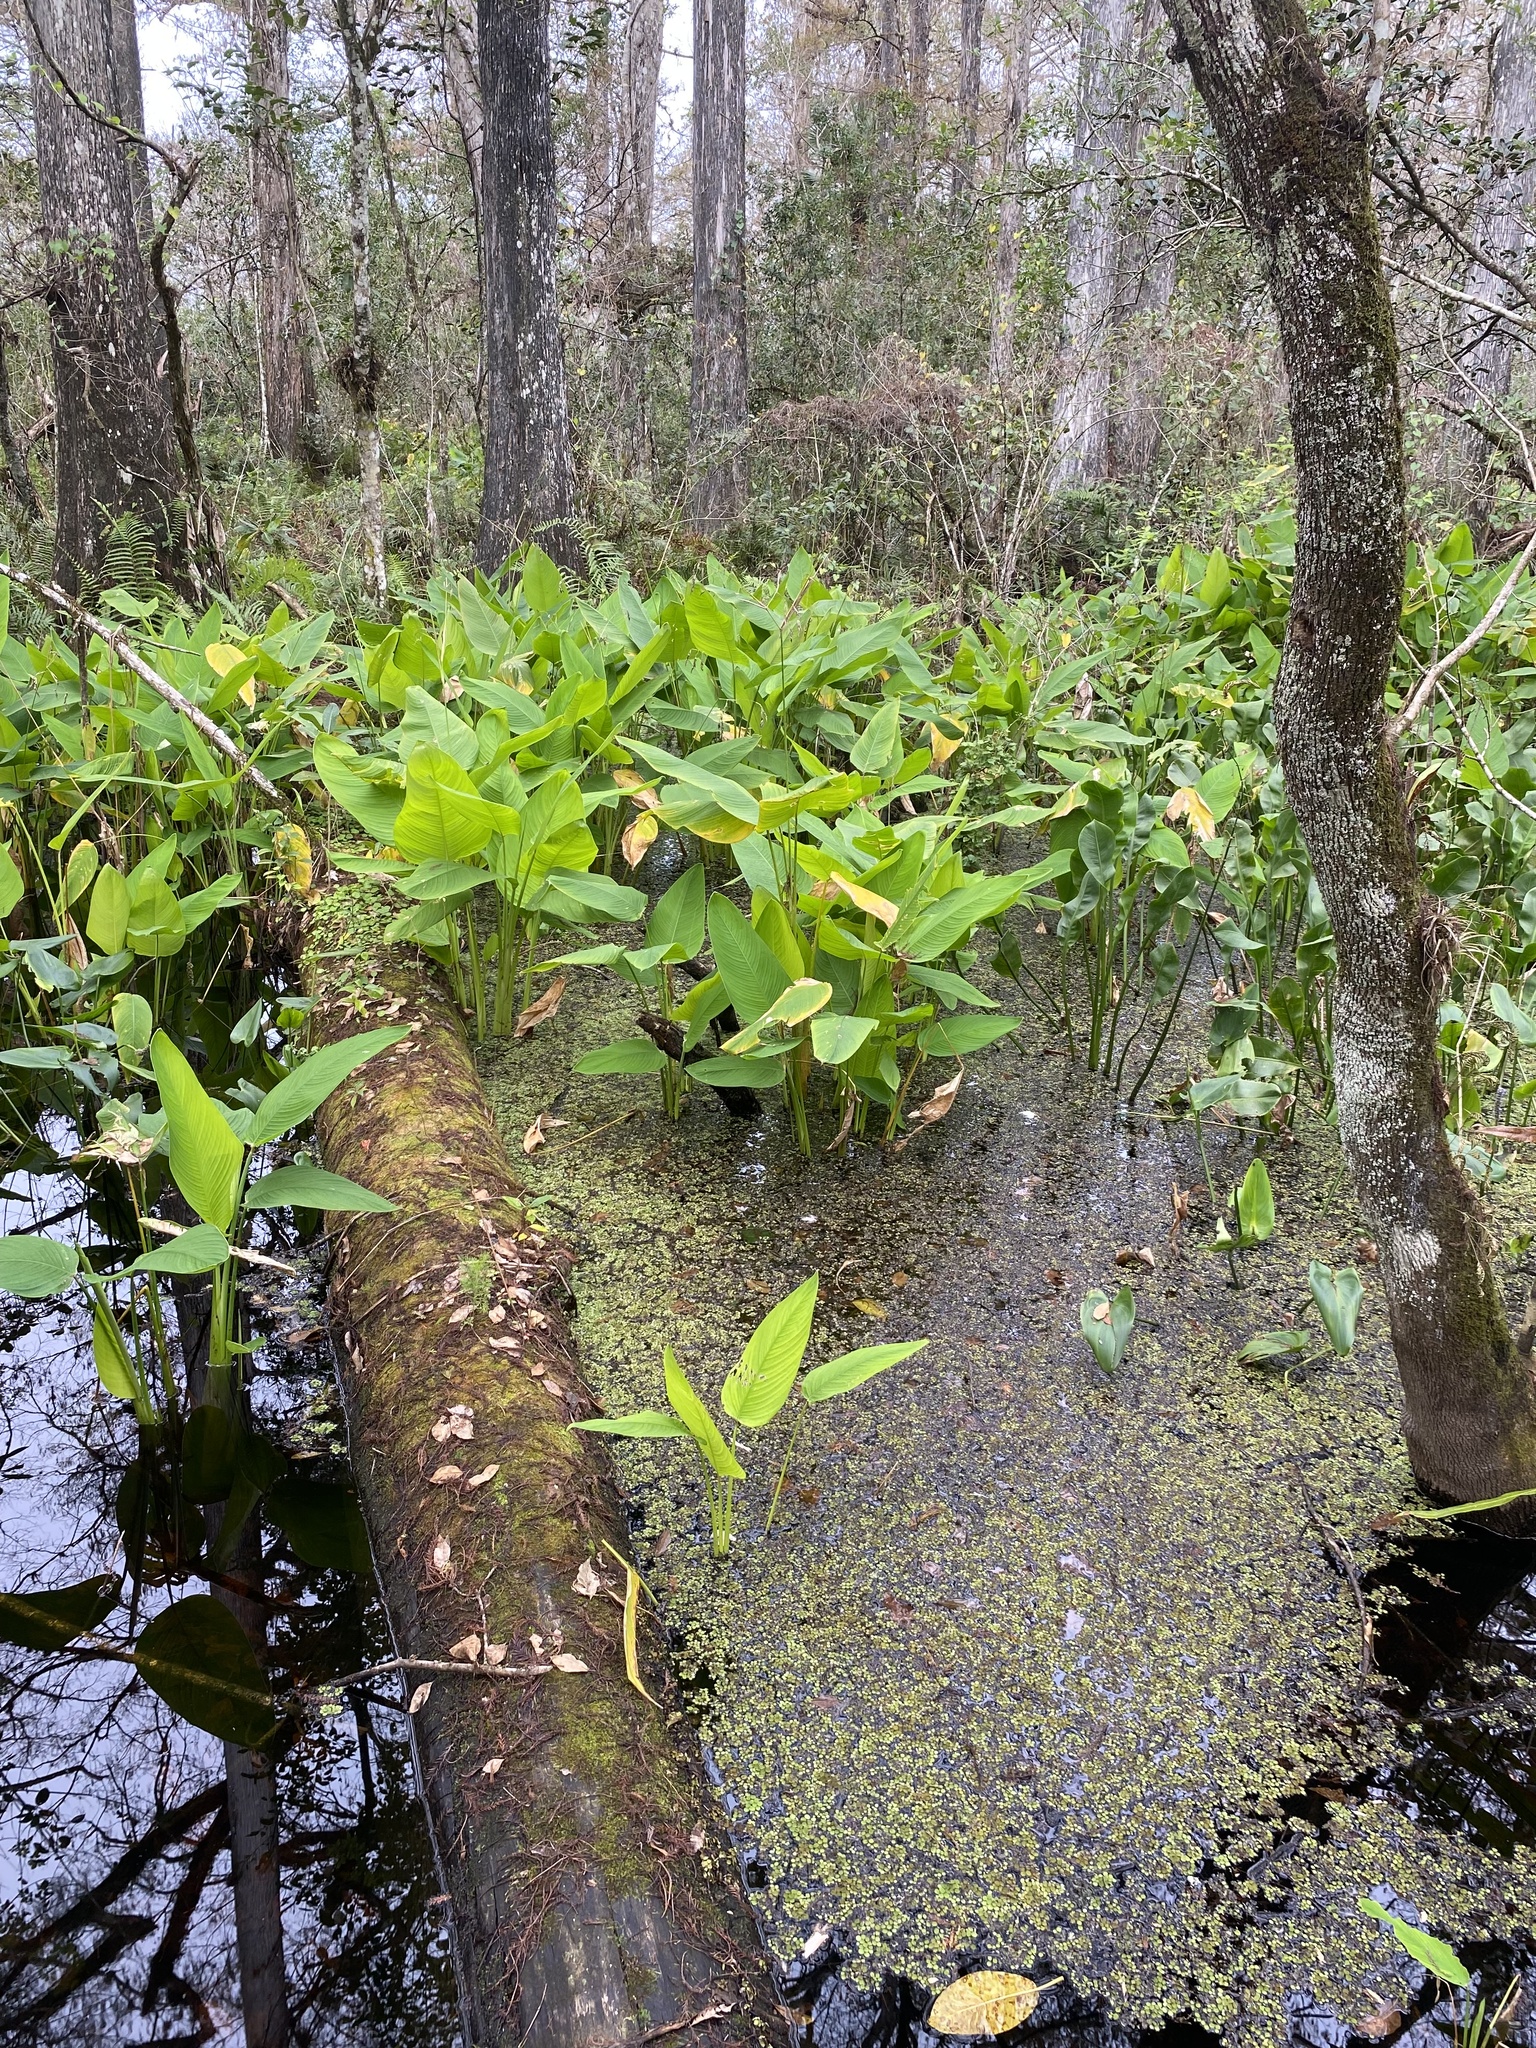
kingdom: Plantae
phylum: Tracheophyta
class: Liliopsida
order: Zingiberales
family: Marantaceae
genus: Thalia
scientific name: Thalia geniculata
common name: Arrowroot
